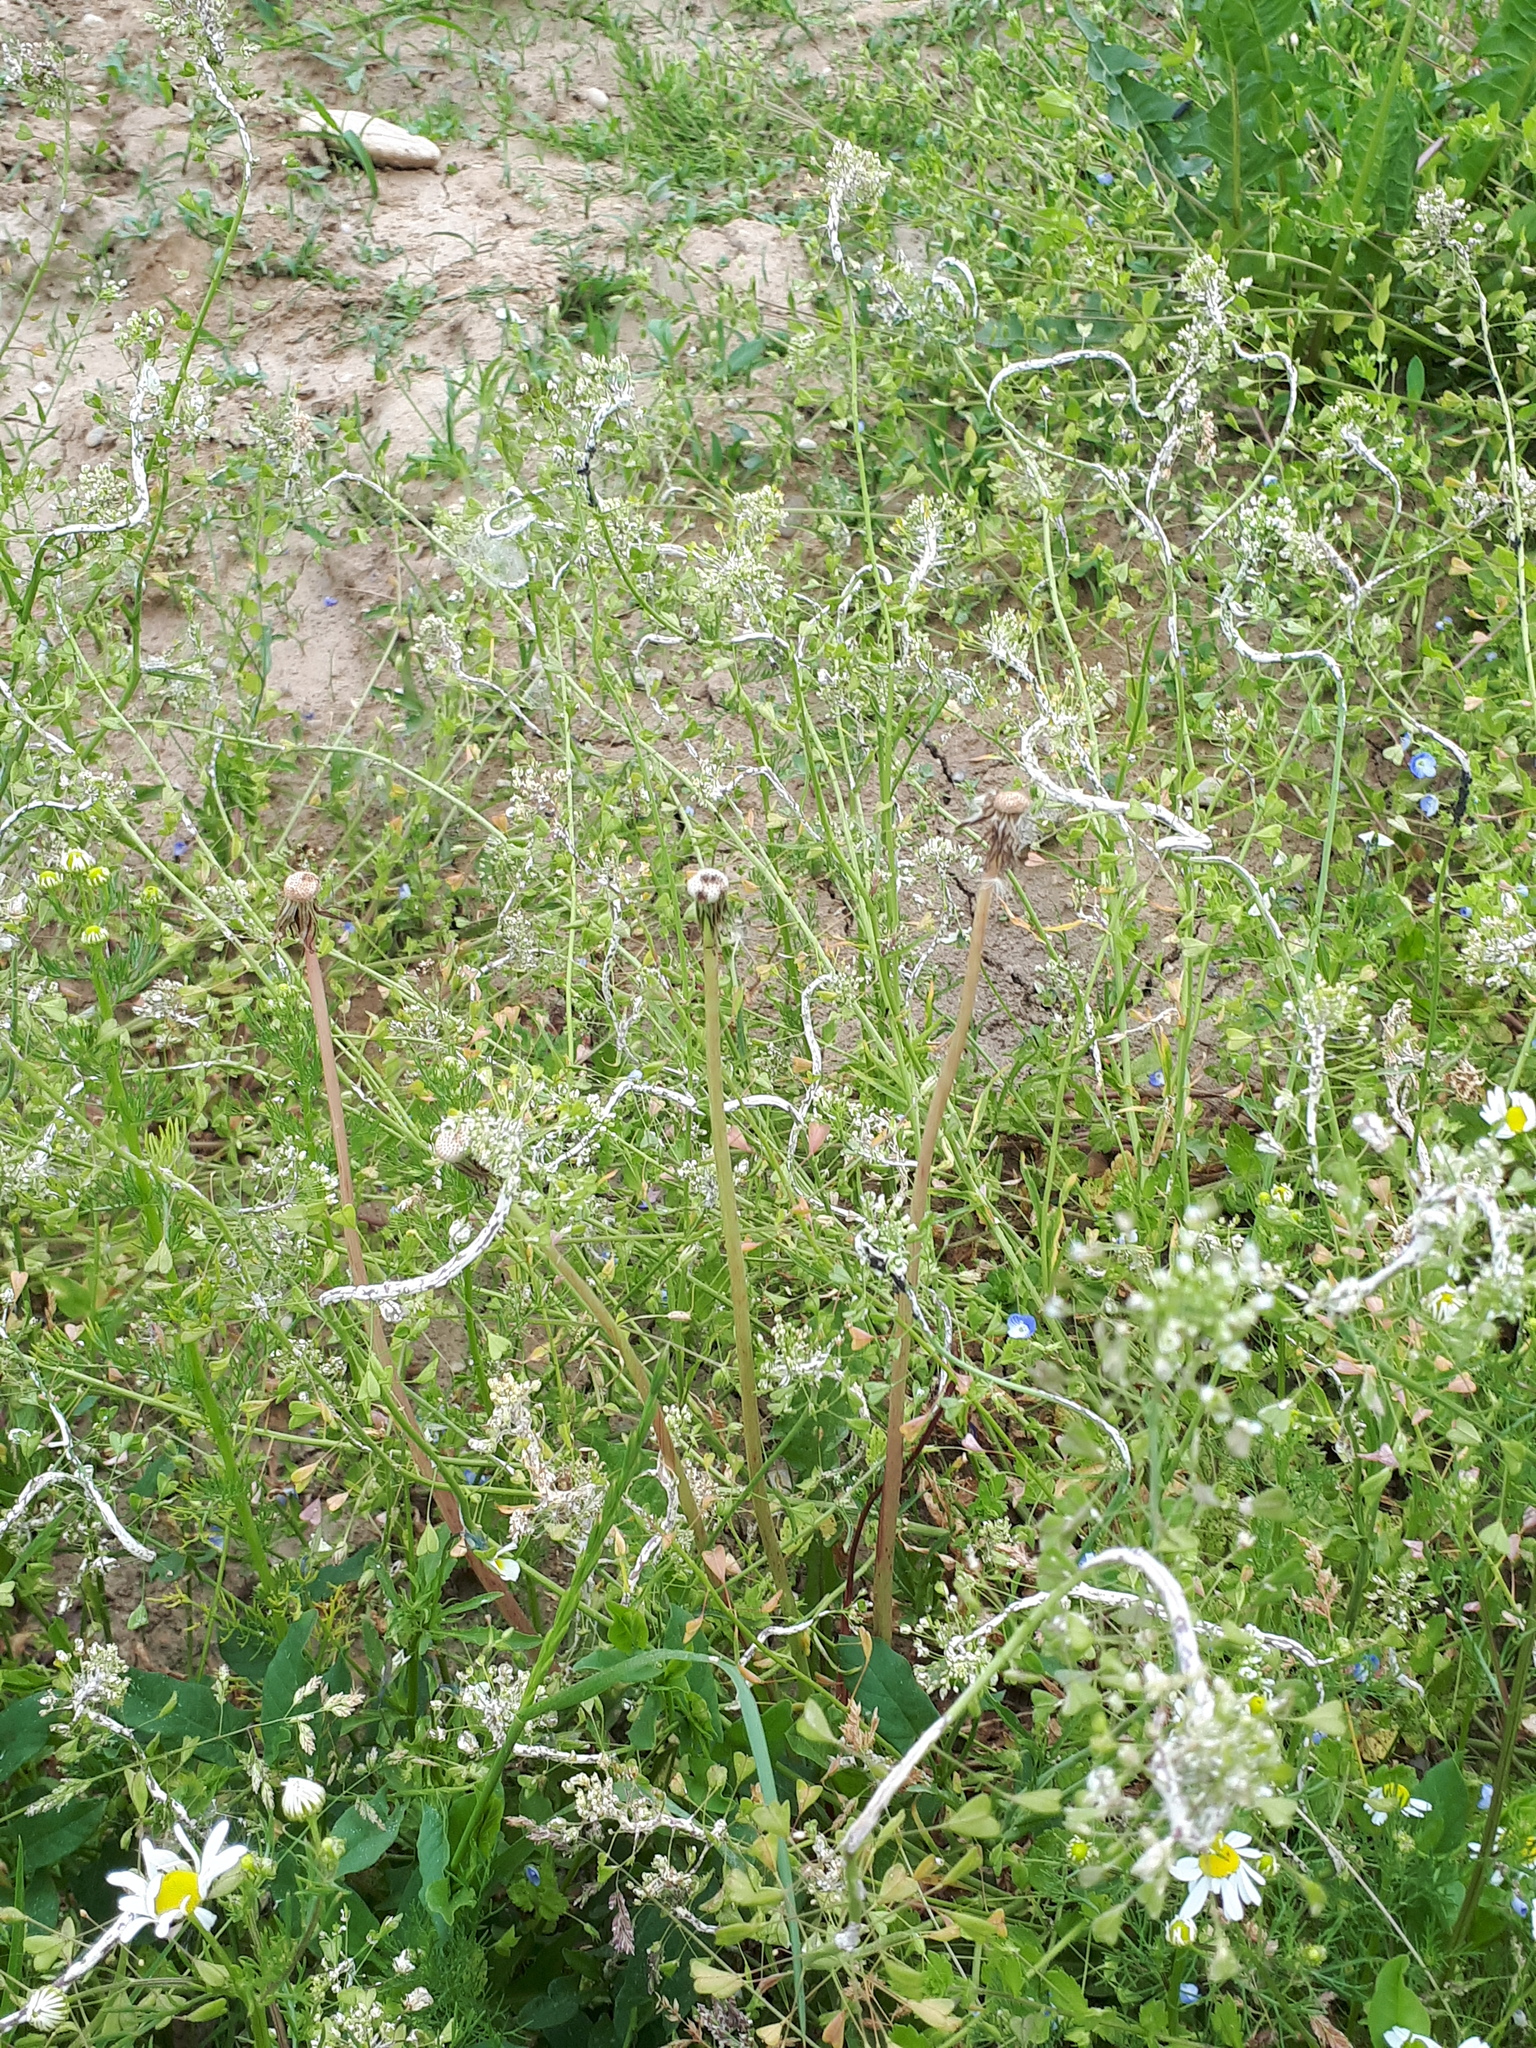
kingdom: Chromista
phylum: Oomycota
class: Peronosporea
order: Albuginales
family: Albuginaceae
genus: Albugo
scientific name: Albugo candida
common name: Crucifer white blister
